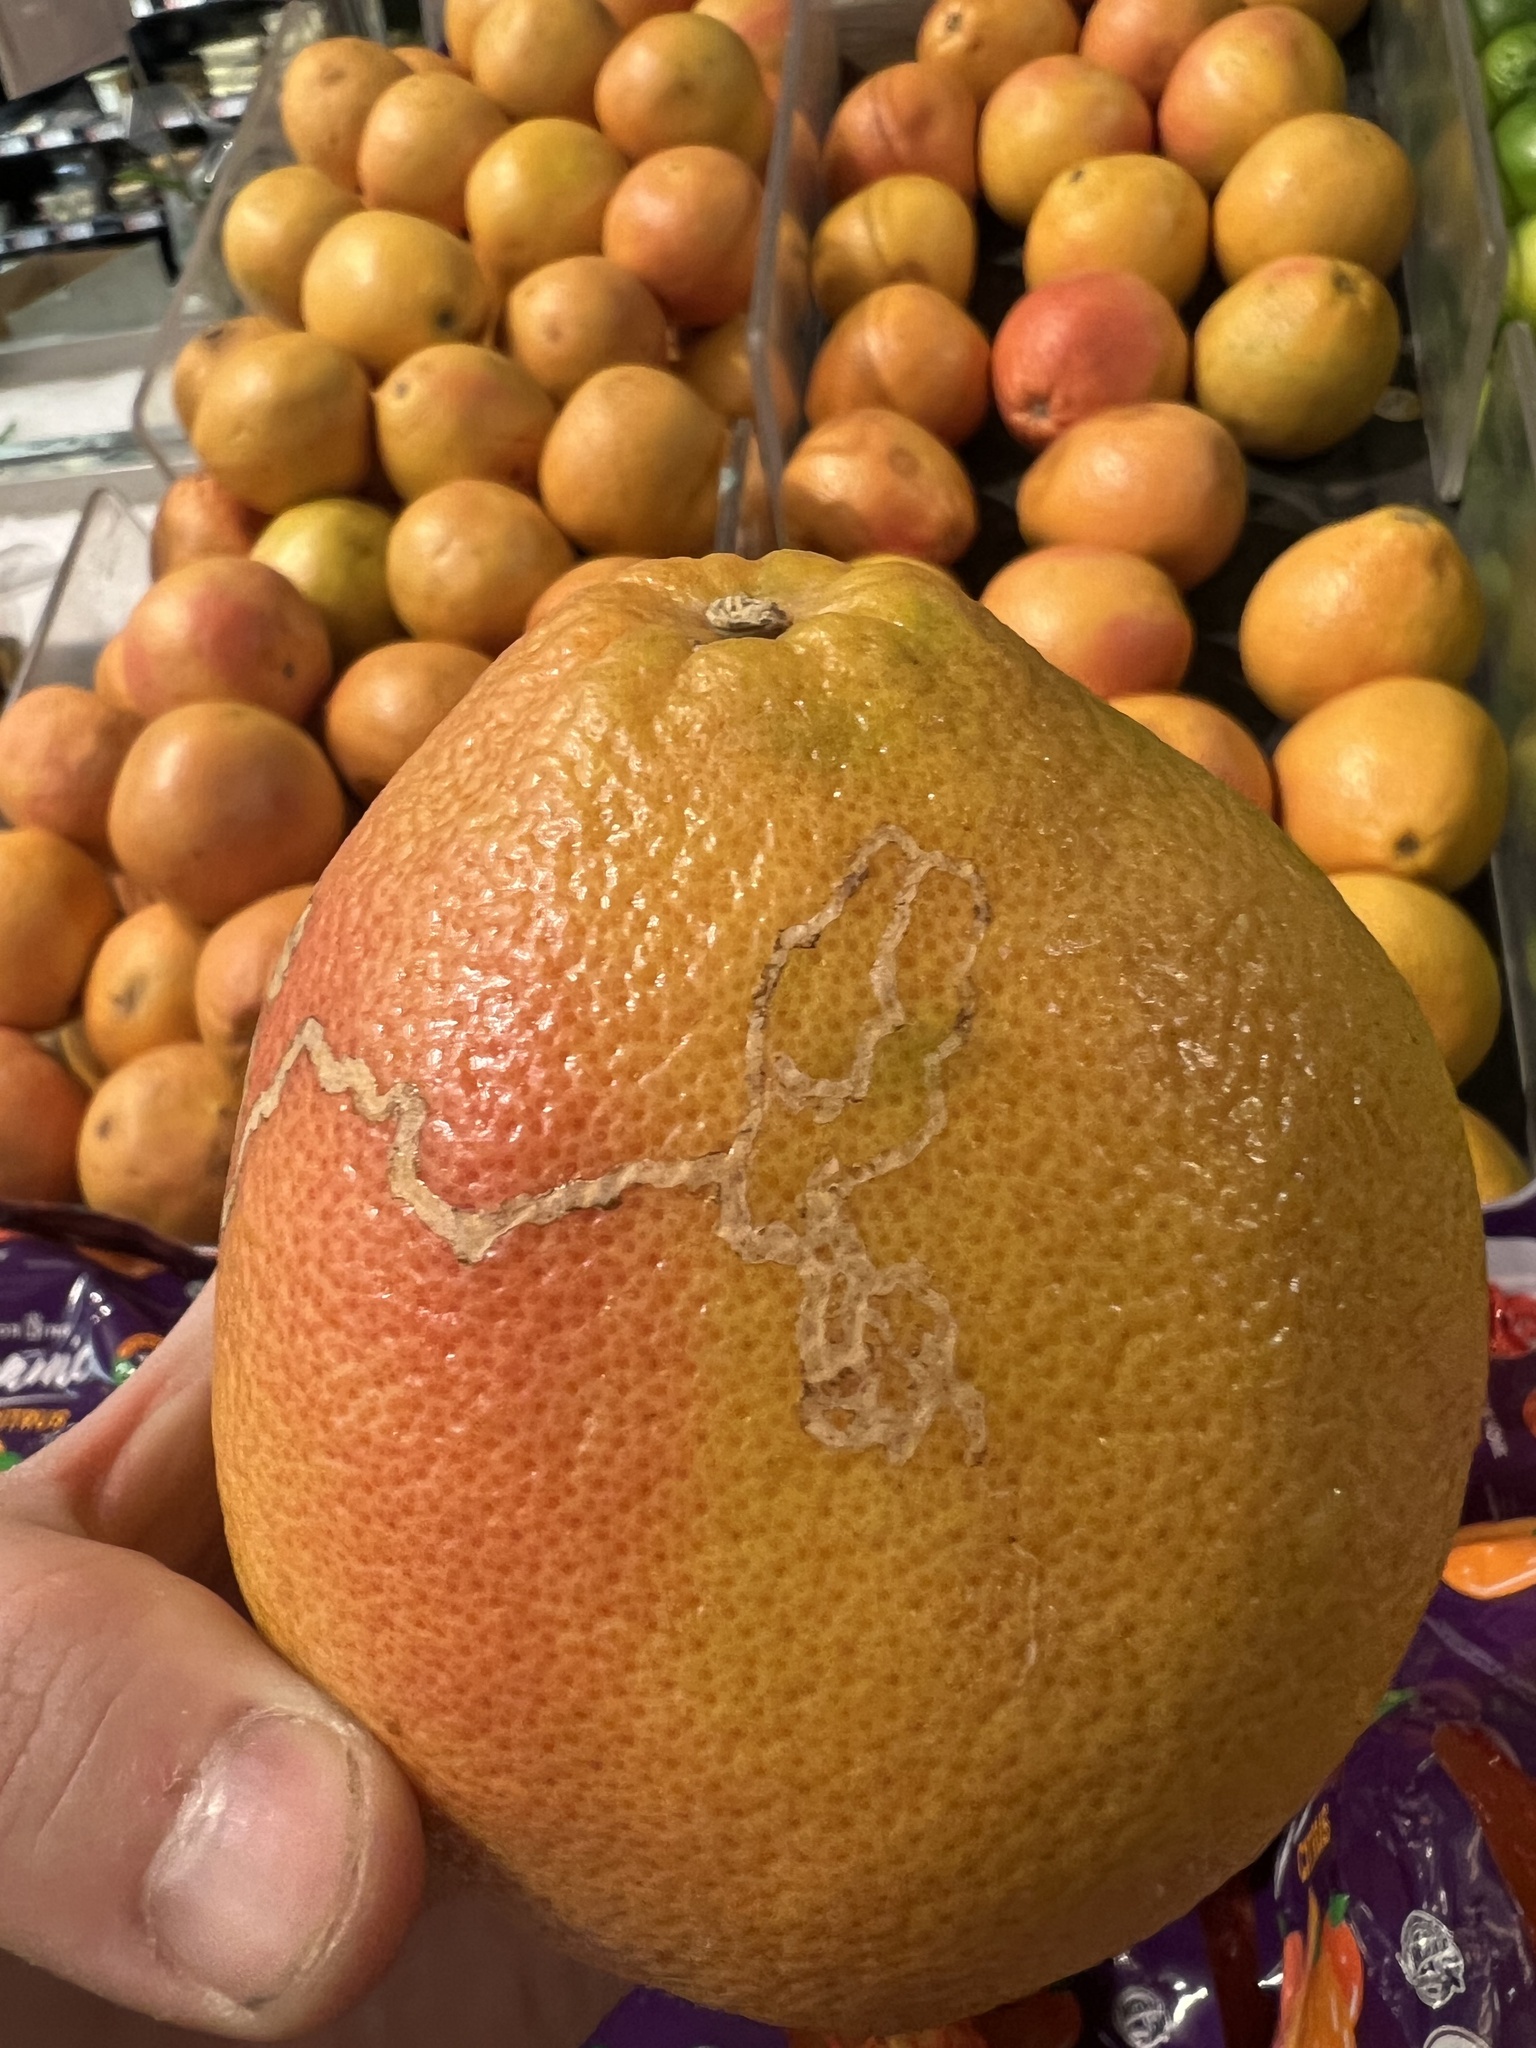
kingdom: Animalia
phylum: Arthropoda
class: Insecta
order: Lepidoptera
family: Gracillariidae
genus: Marmara
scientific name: Marmara gulosa
